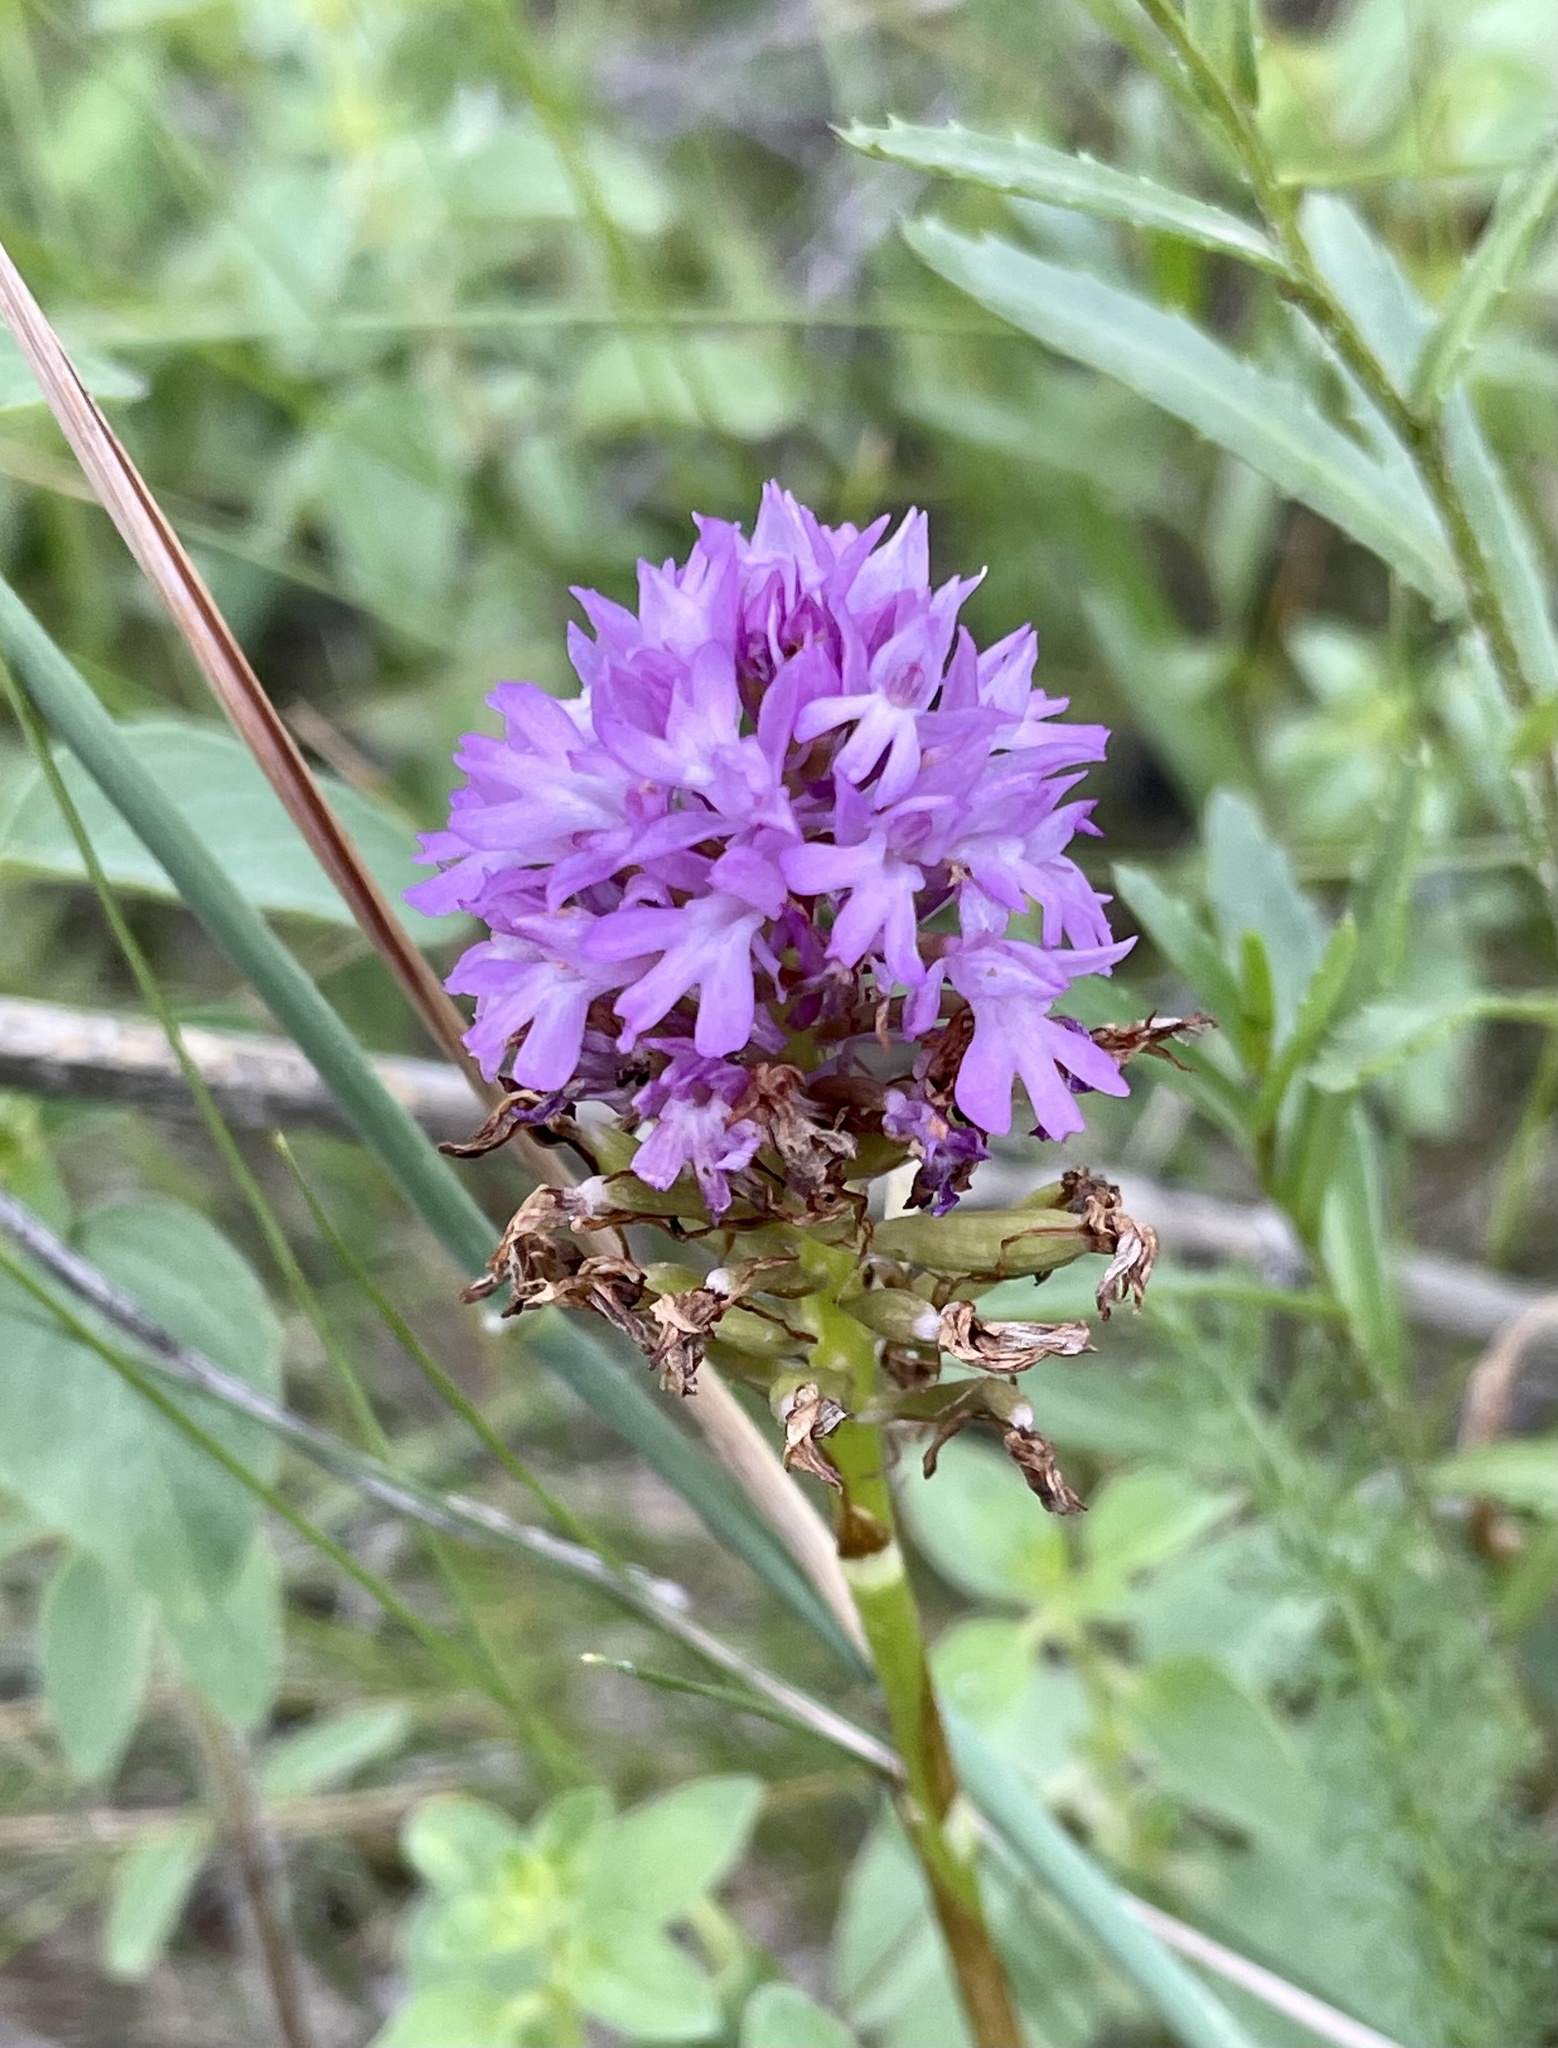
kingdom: Plantae
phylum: Tracheophyta
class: Liliopsida
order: Asparagales
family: Orchidaceae
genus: Anacamptis
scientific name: Anacamptis pyramidalis
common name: Pyramidal orchid
